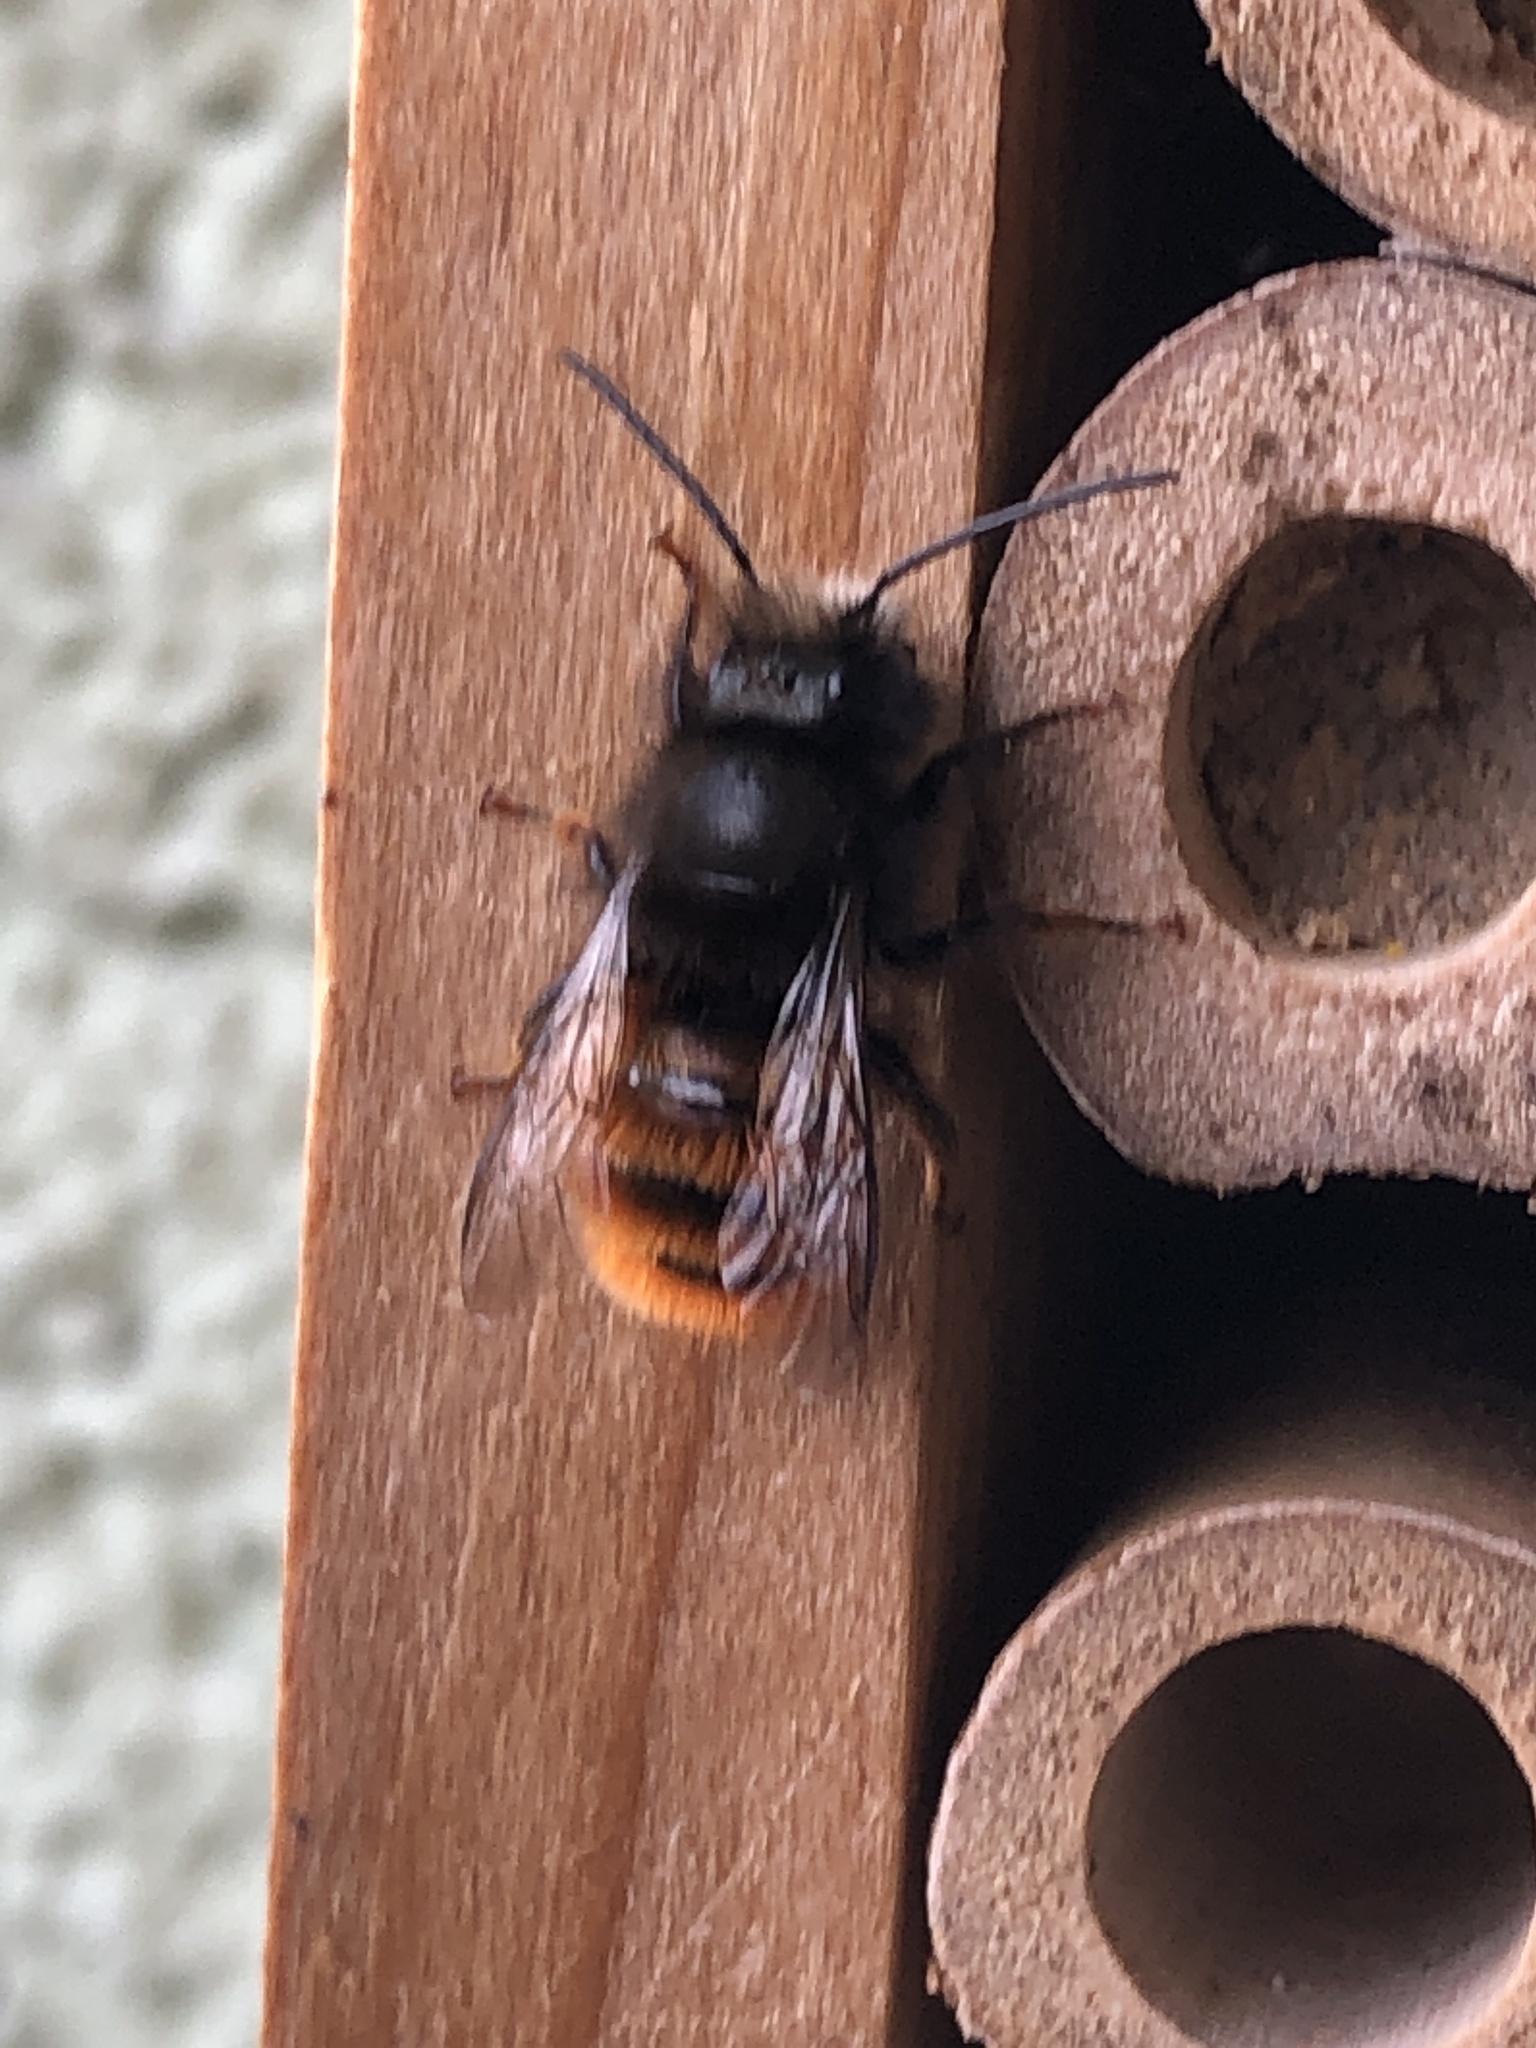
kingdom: Animalia
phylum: Arthropoda
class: Insecta
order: Hymenoptera
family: Megachilidae
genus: Osmia
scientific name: Osmia cornuta
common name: Mason bee
